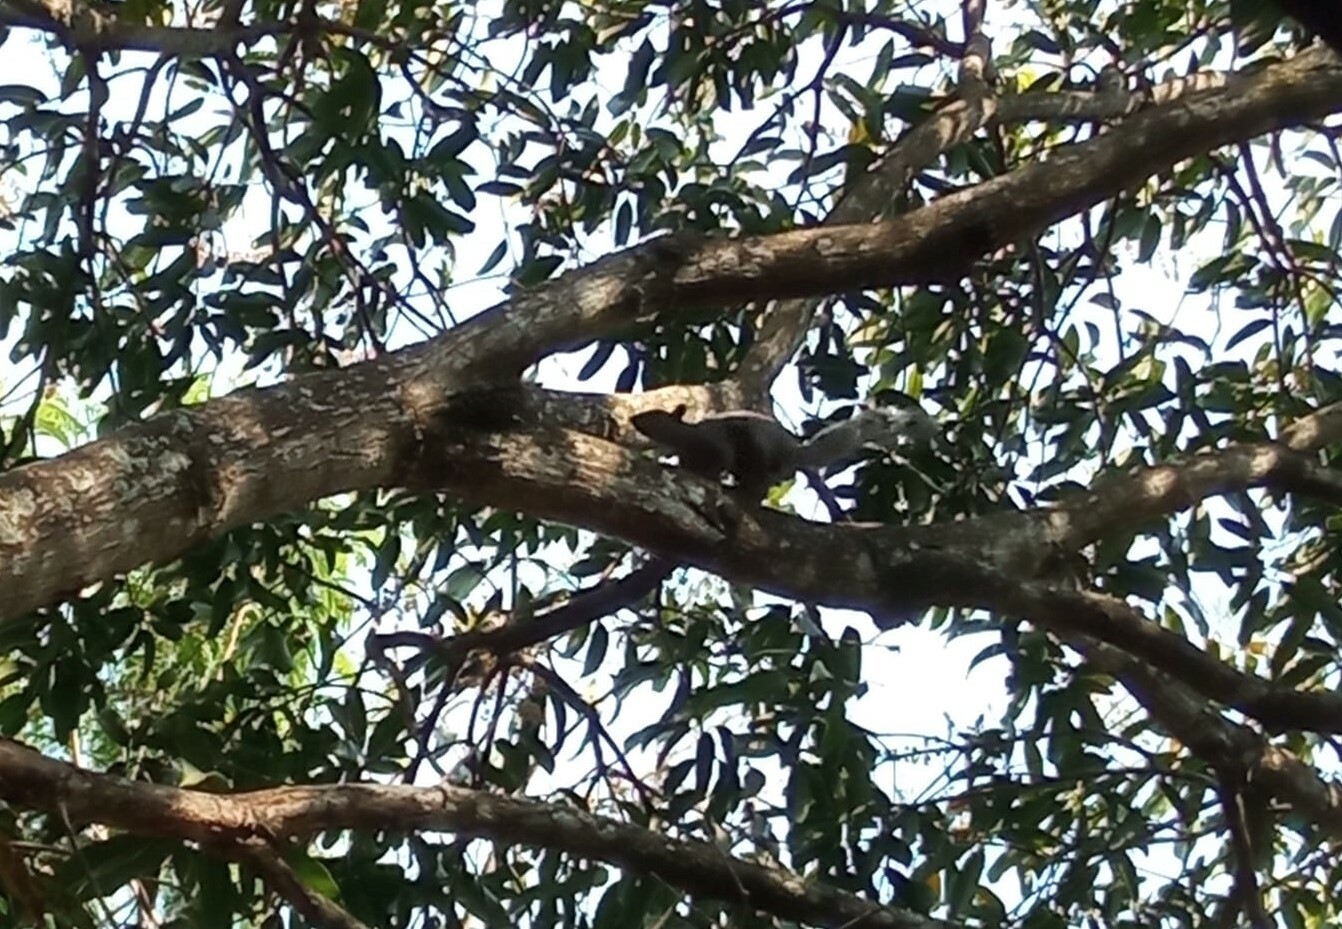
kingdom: Animalia
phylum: Chordata
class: Mammalia
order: Rodentia
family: Sciuridae
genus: Sciurus
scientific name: Sciurus aureogaster
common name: Red-bellied squirrel
